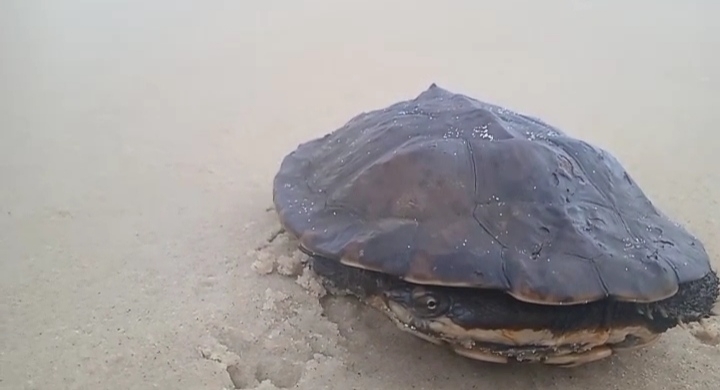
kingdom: Animalia
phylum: Chordata
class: Testudines
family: Chelidae
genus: Hydromedusa
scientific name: Hydromedusa tectifera
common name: Argentine snake-necked turtle
